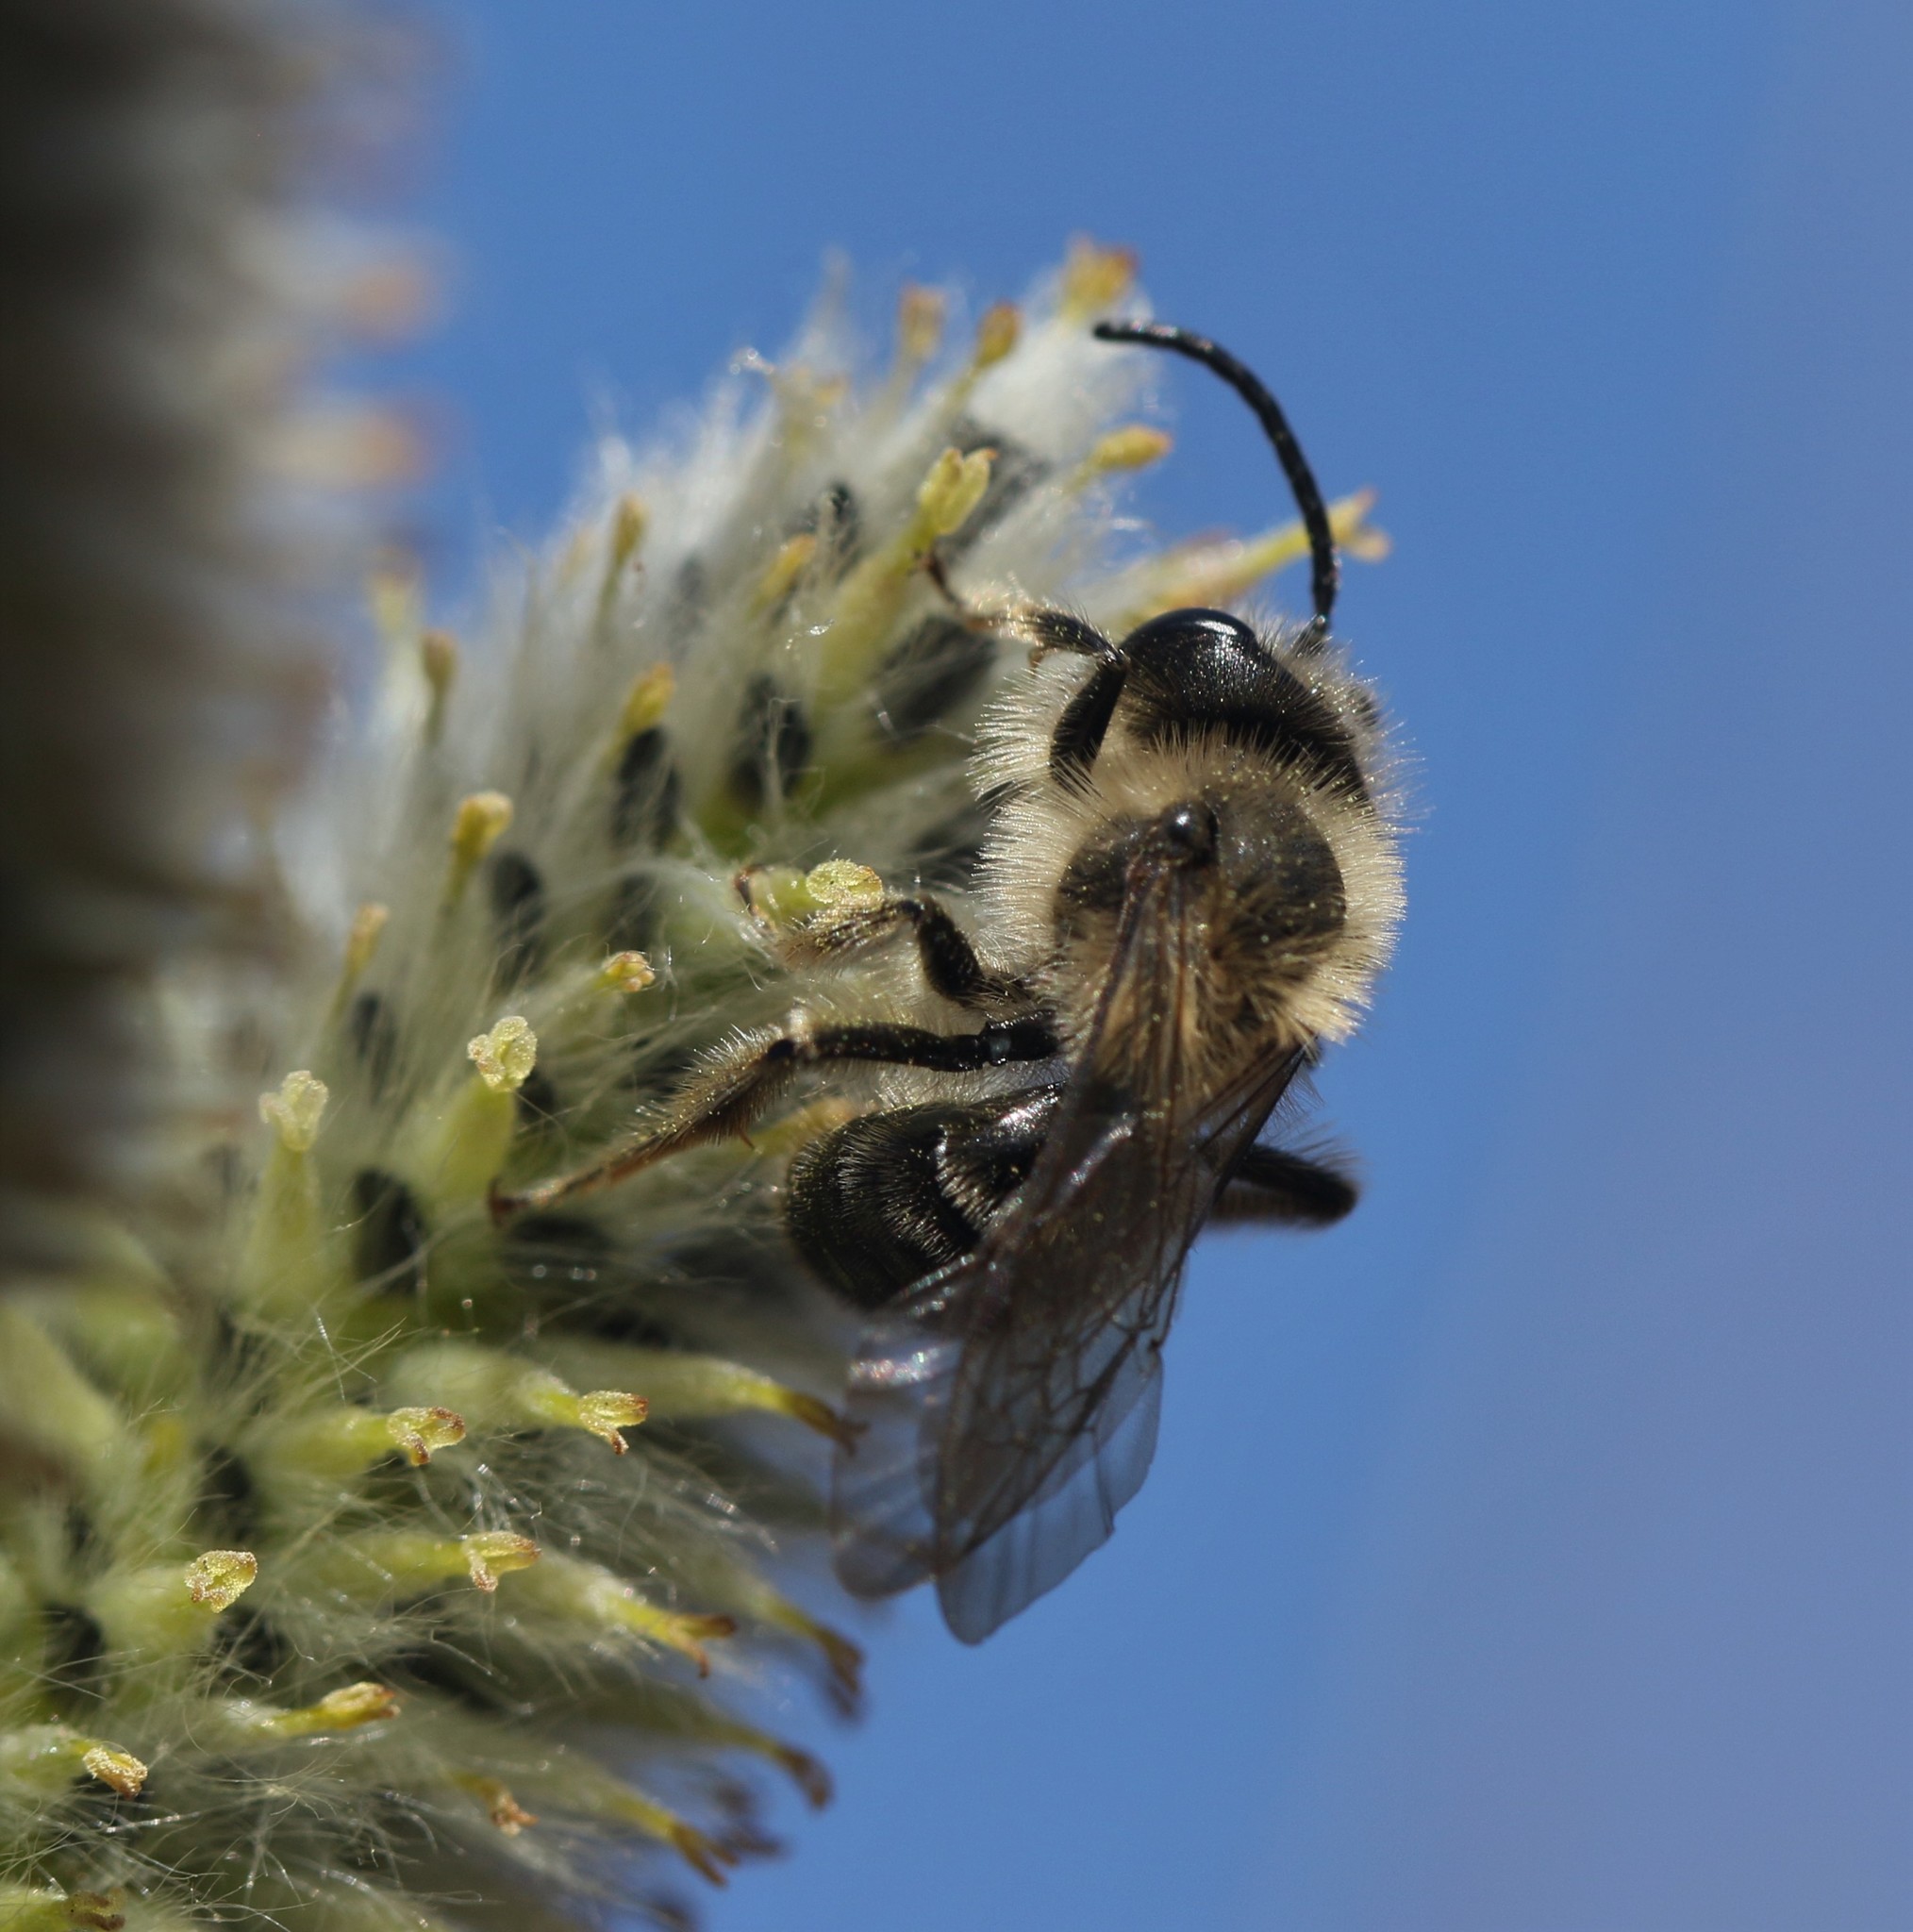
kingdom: Animalia
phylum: Arthropoda
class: Insecta
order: Hymenoptera
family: Andrenidae
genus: Andrena
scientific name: Andrena carlini
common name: Carlin's mining bee
